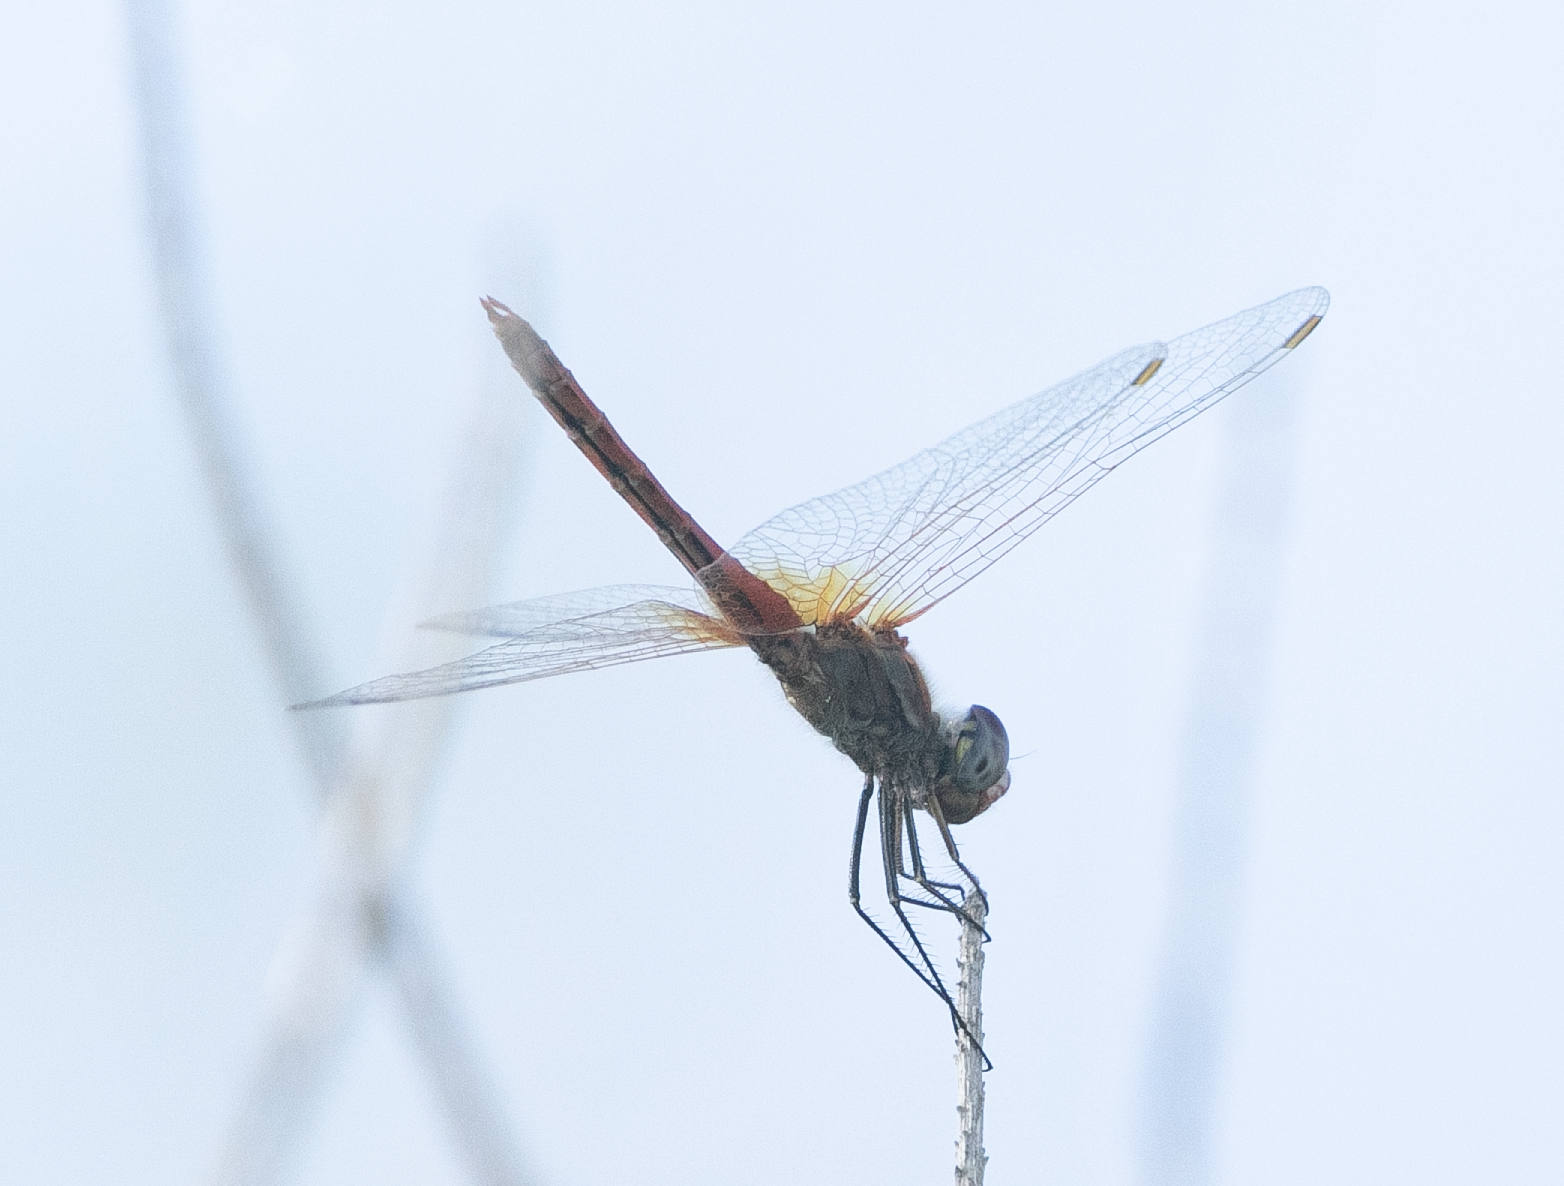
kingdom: Animalia
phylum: Arthropoda
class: Insecta
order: Odonata
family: Libellulidae
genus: Sympetrum
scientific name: Sympetrum fonscolombii
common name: Red-veined darter
